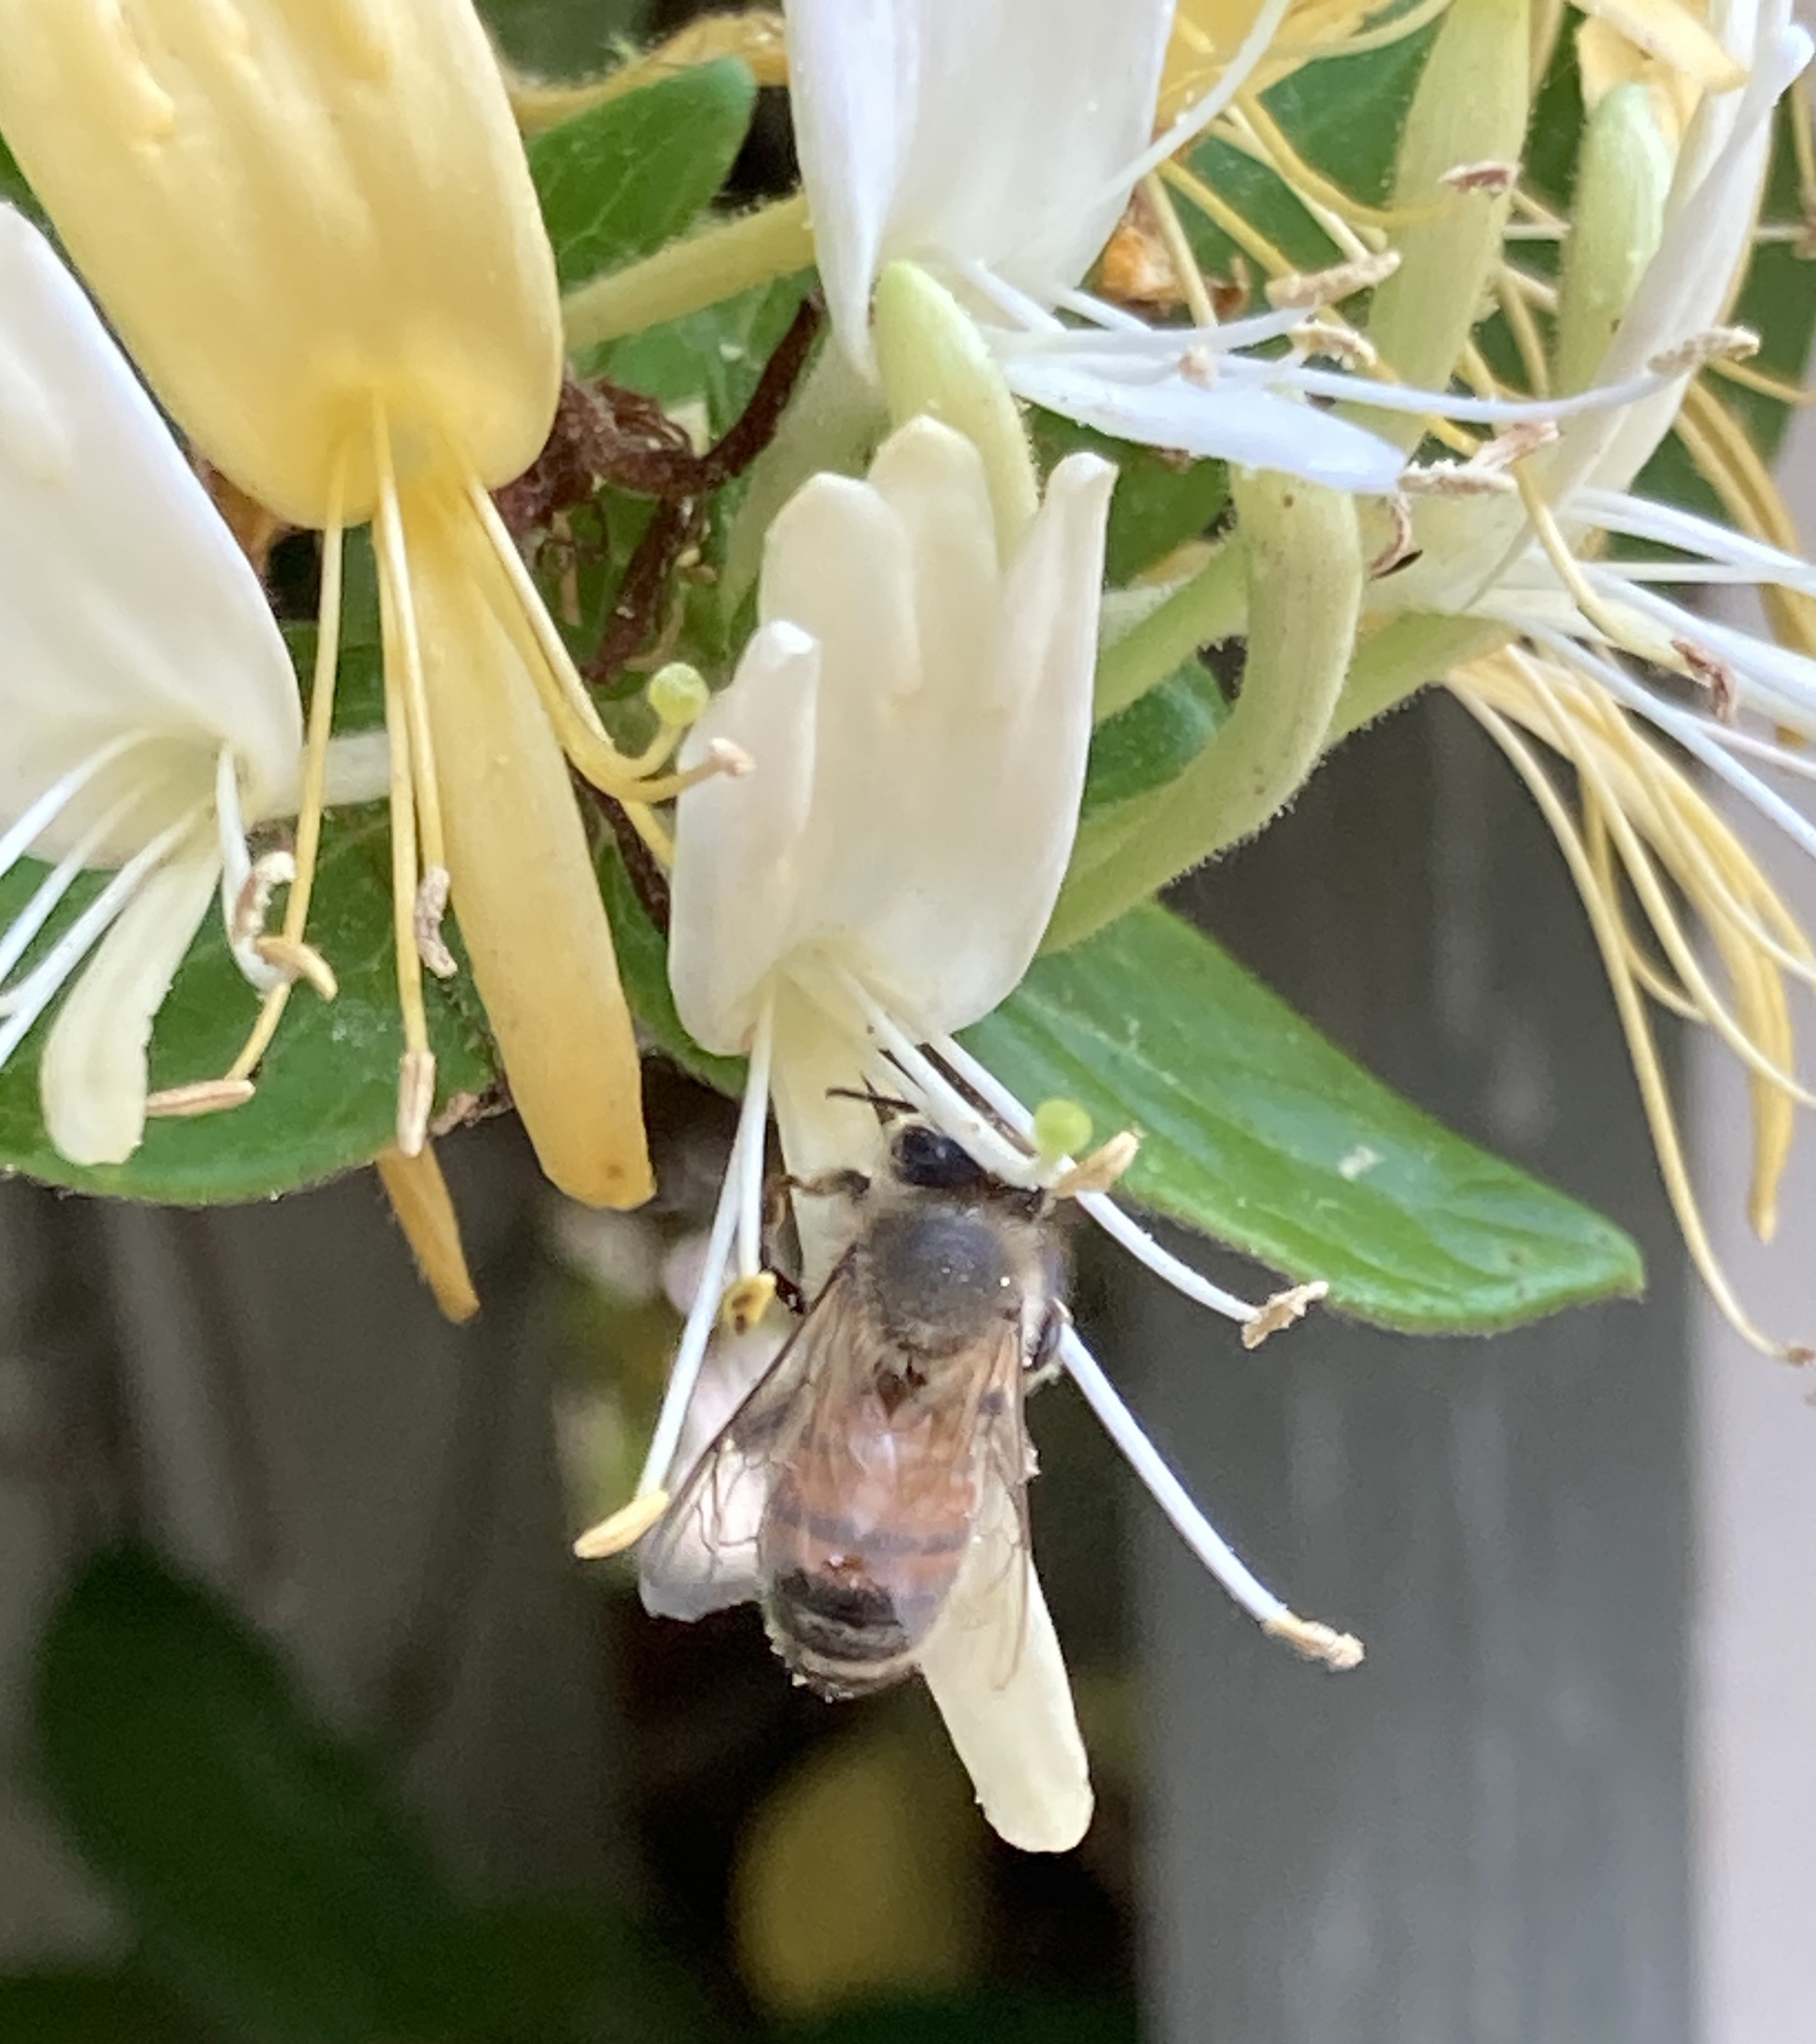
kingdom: Animalia
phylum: Arthropoda
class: Insecta
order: Hymenoptera
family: Apidae
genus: Apis
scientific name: Apis mellifera
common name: Honey bee
